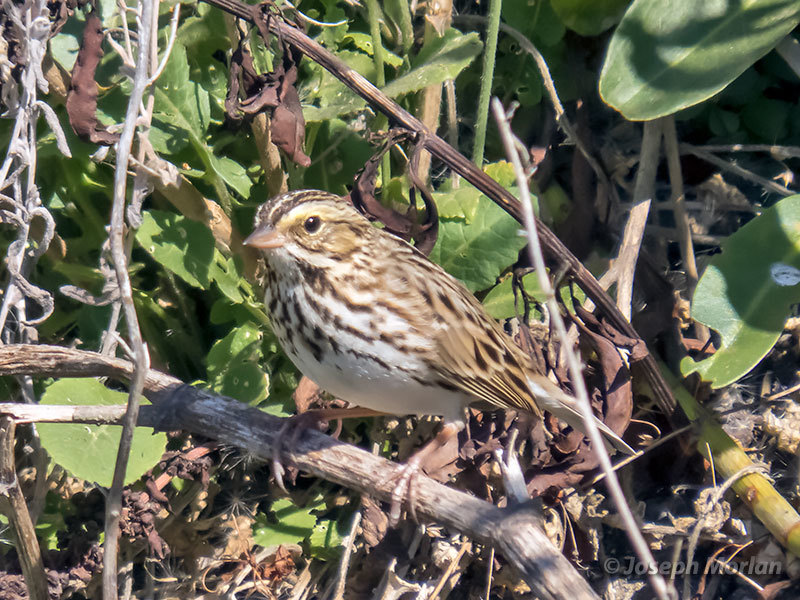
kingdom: Animalia
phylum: Chordata
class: Aves
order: Passeriformes
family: Passerellidae
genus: Passerculus
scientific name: Passerculus sandwichensis
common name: Savannah sparrow
